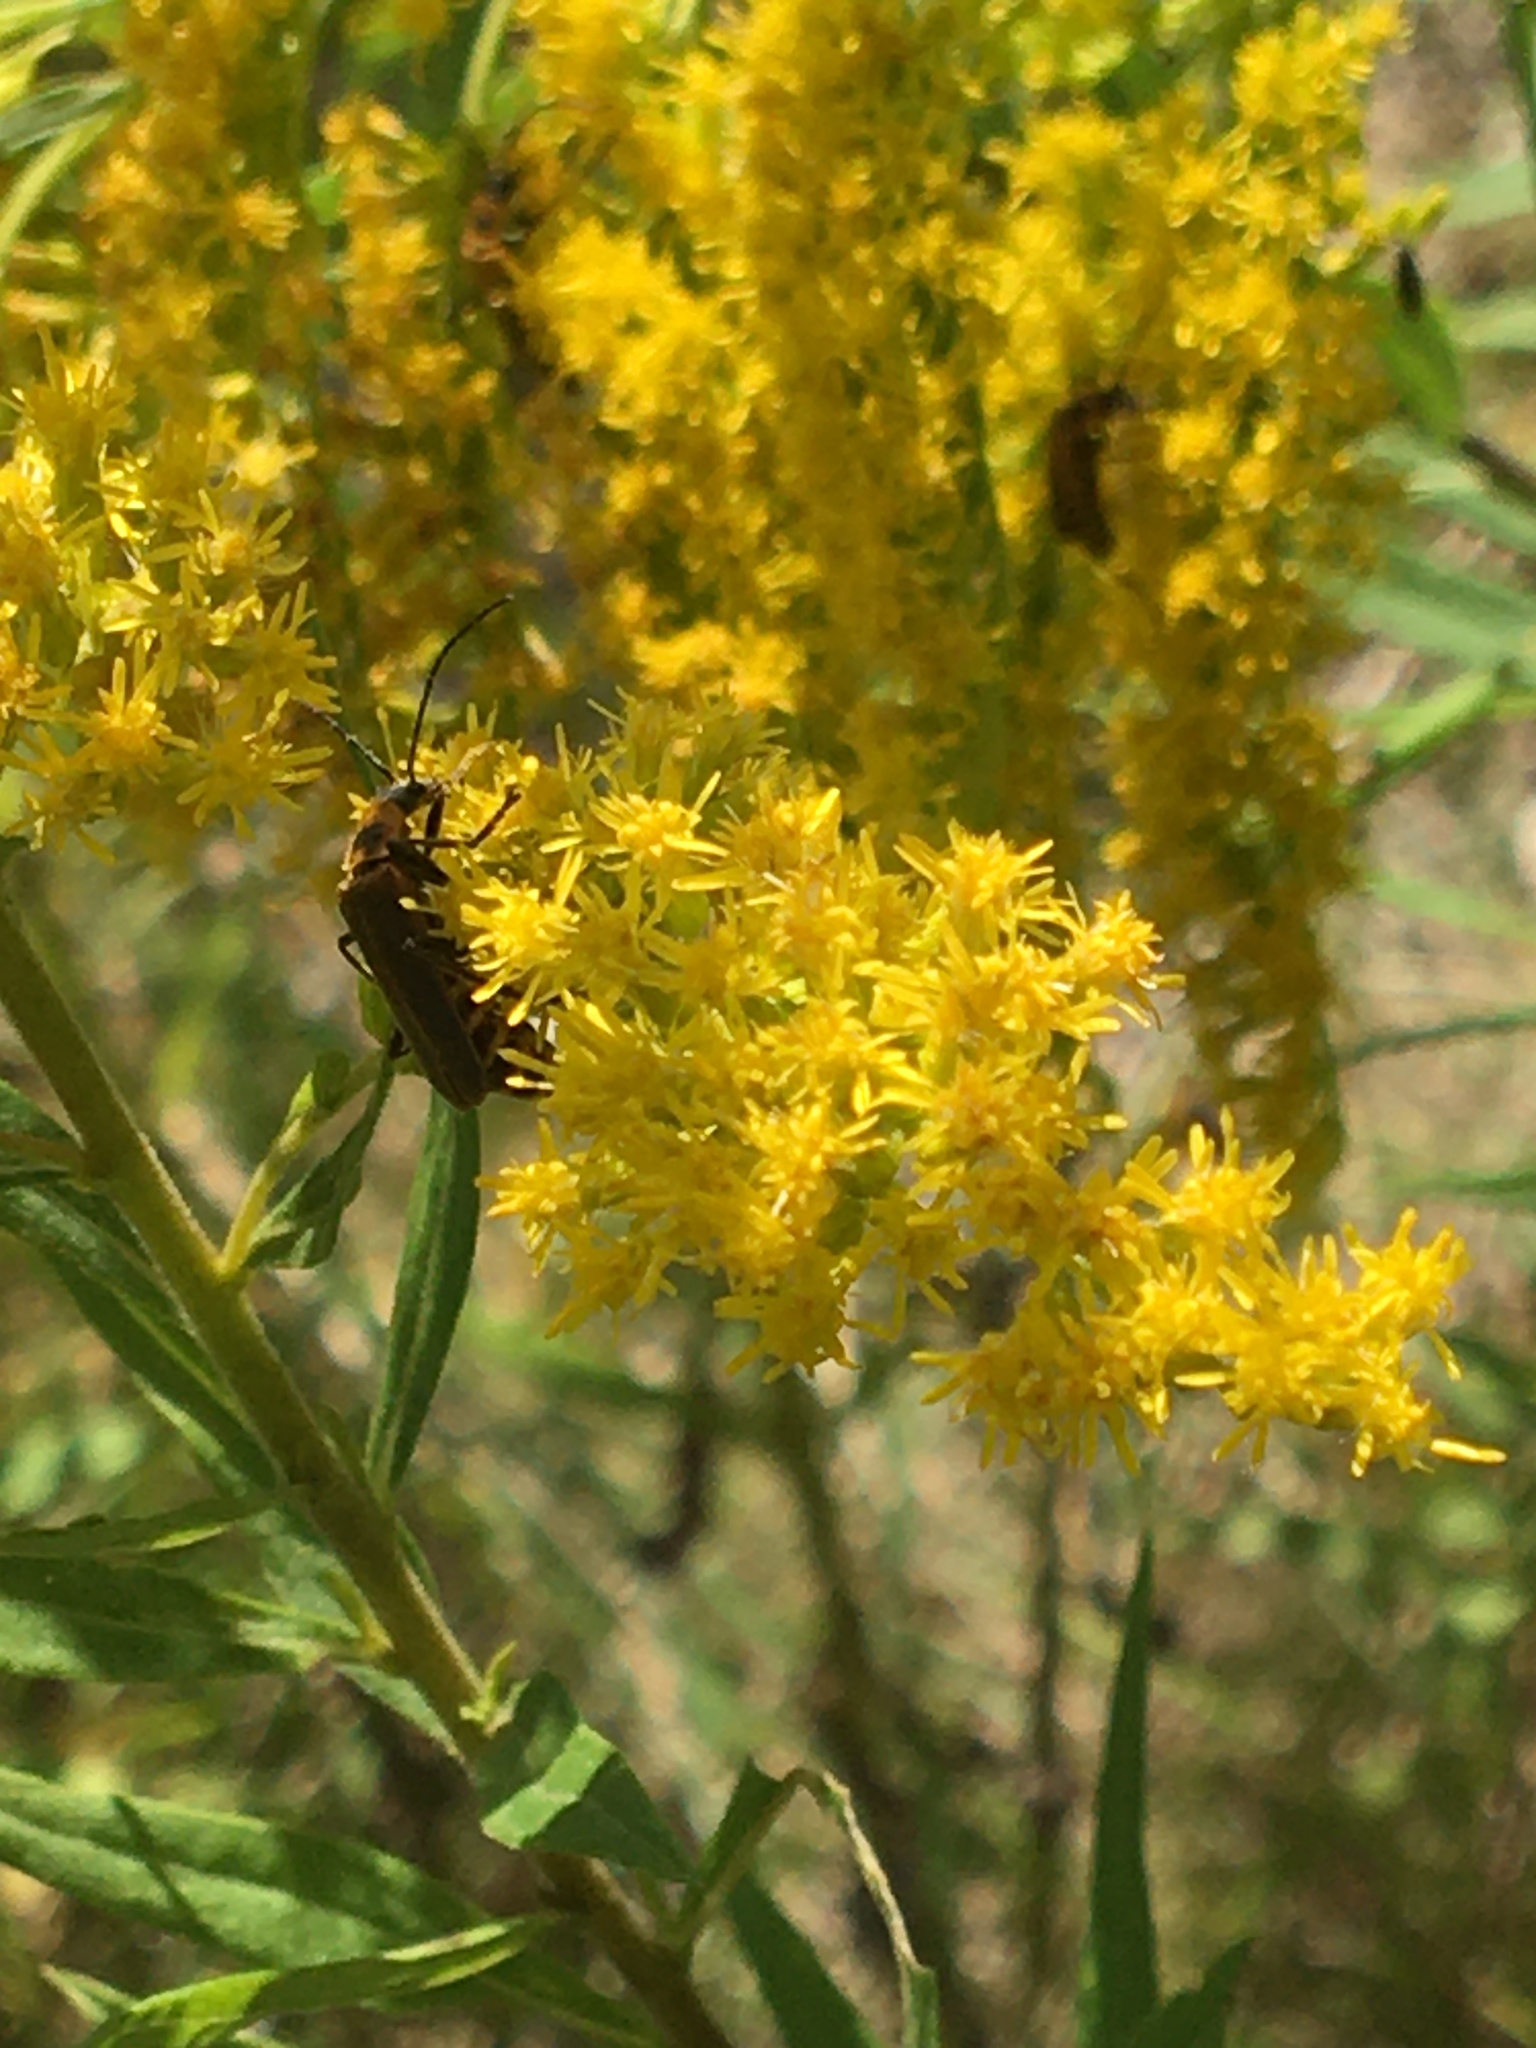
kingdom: Animalia
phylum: Arthropoda
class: Insecta
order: Coleoptera
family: Cantharidae
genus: Chauliognathus
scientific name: Chauliognathus pensylvanicus
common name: Goldenrod soldier beetle
